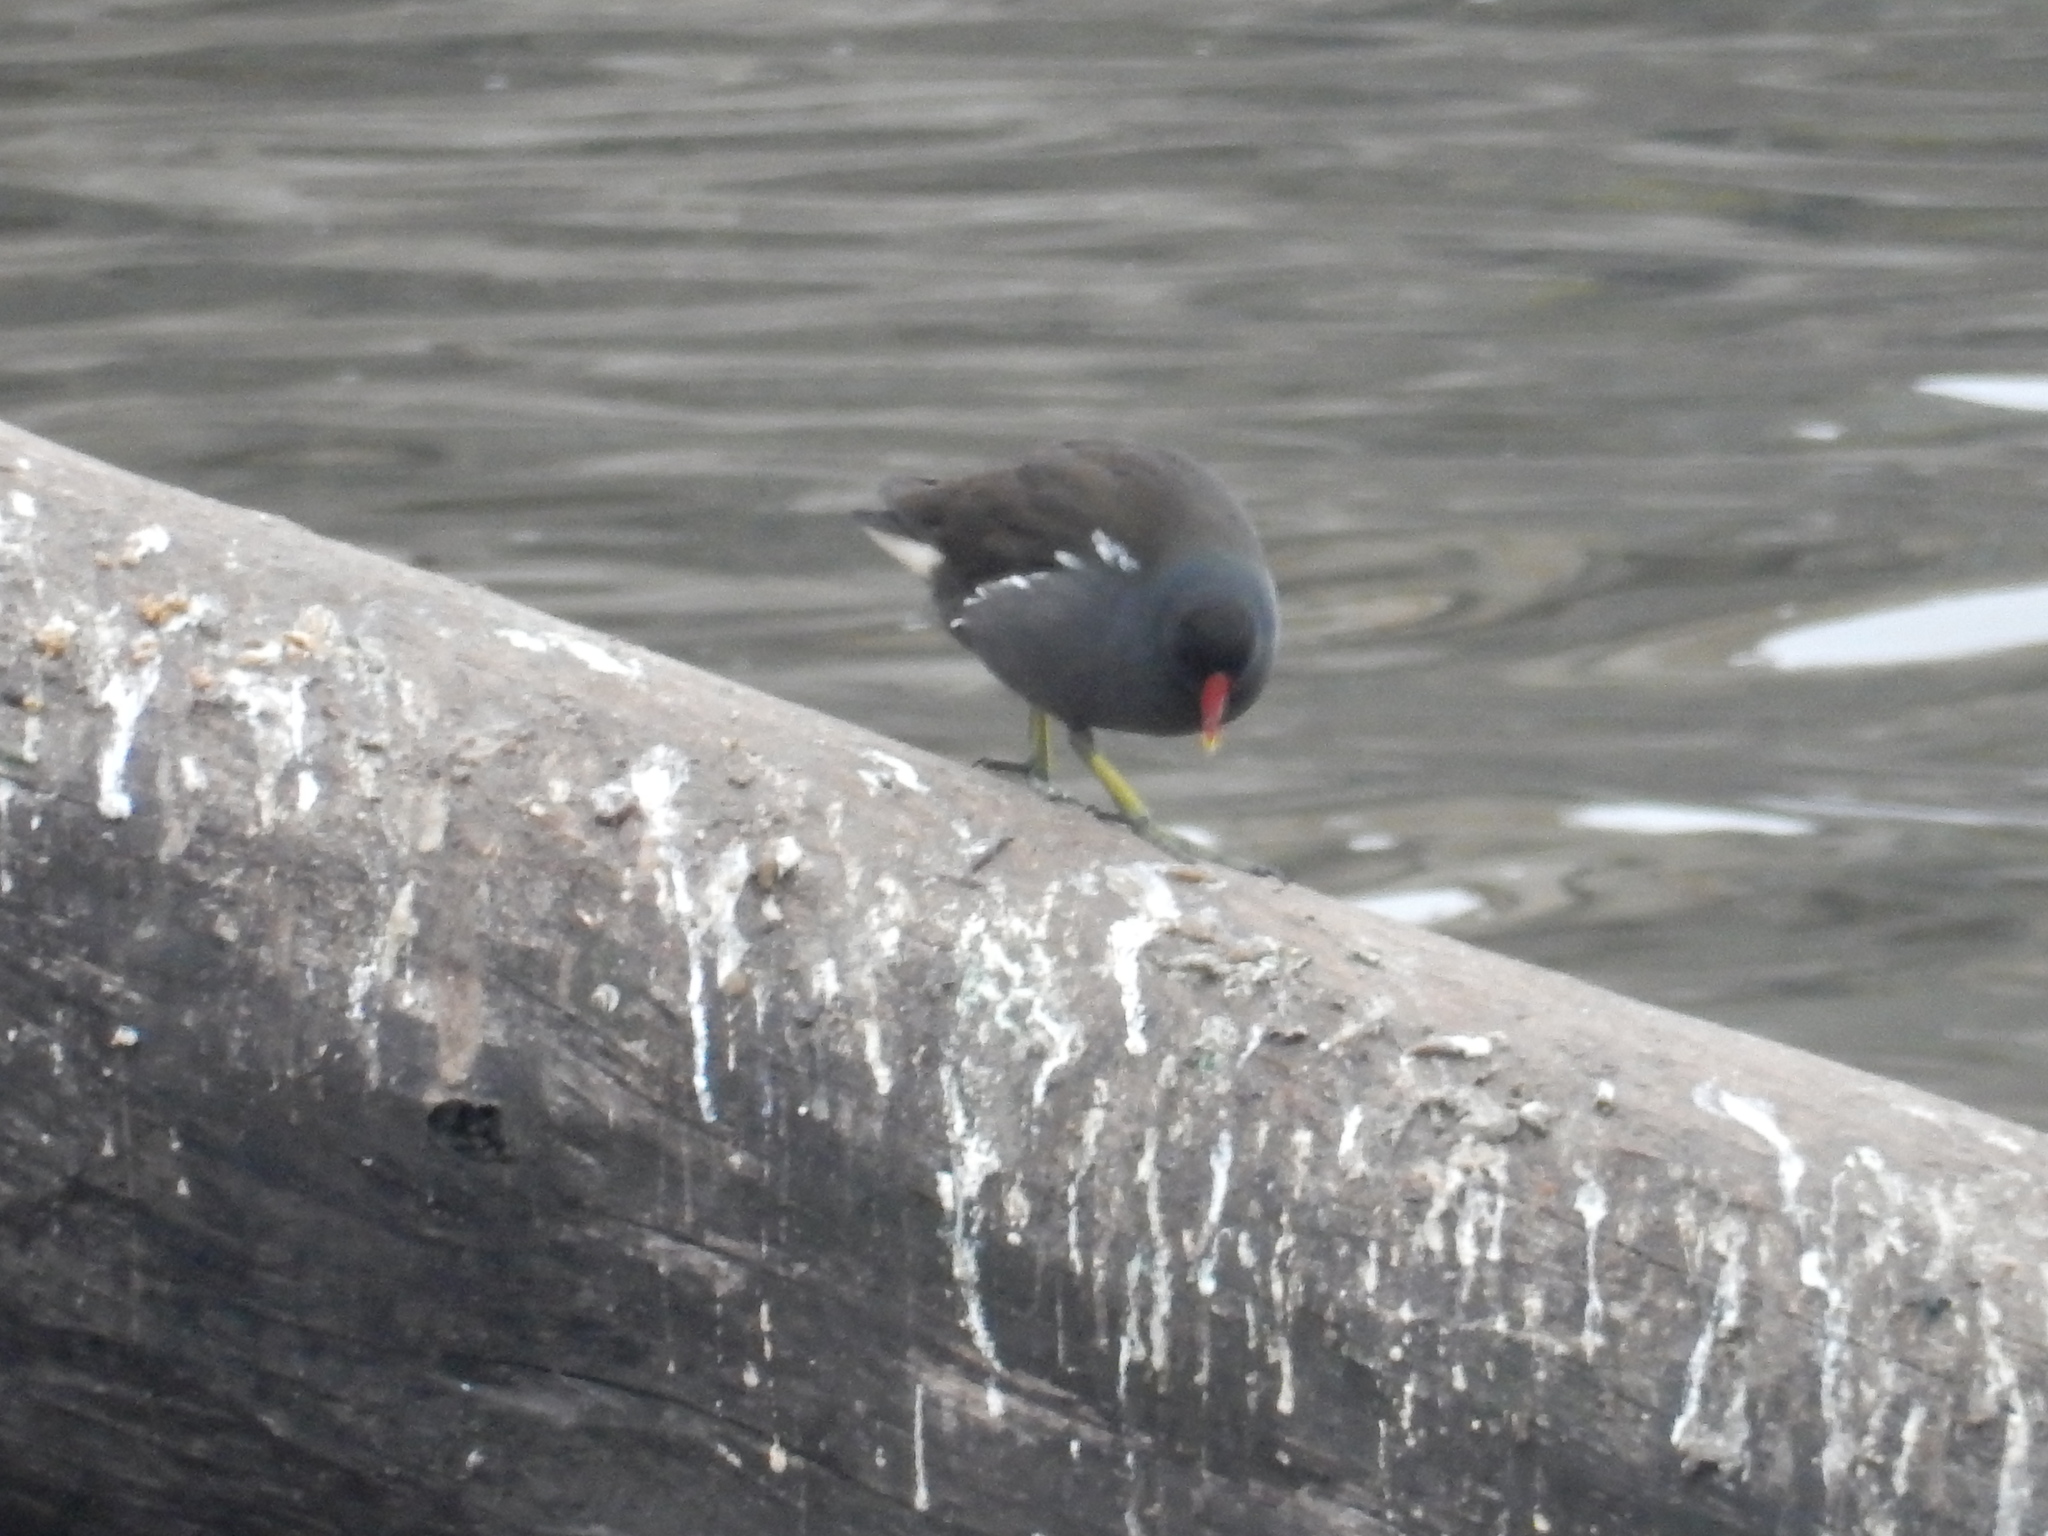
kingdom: Animalia
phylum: Chordata
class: Aves
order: Gruiformes
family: Rallidae
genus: Gallinula
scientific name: Gallinula chloropus
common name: Common moorhen
